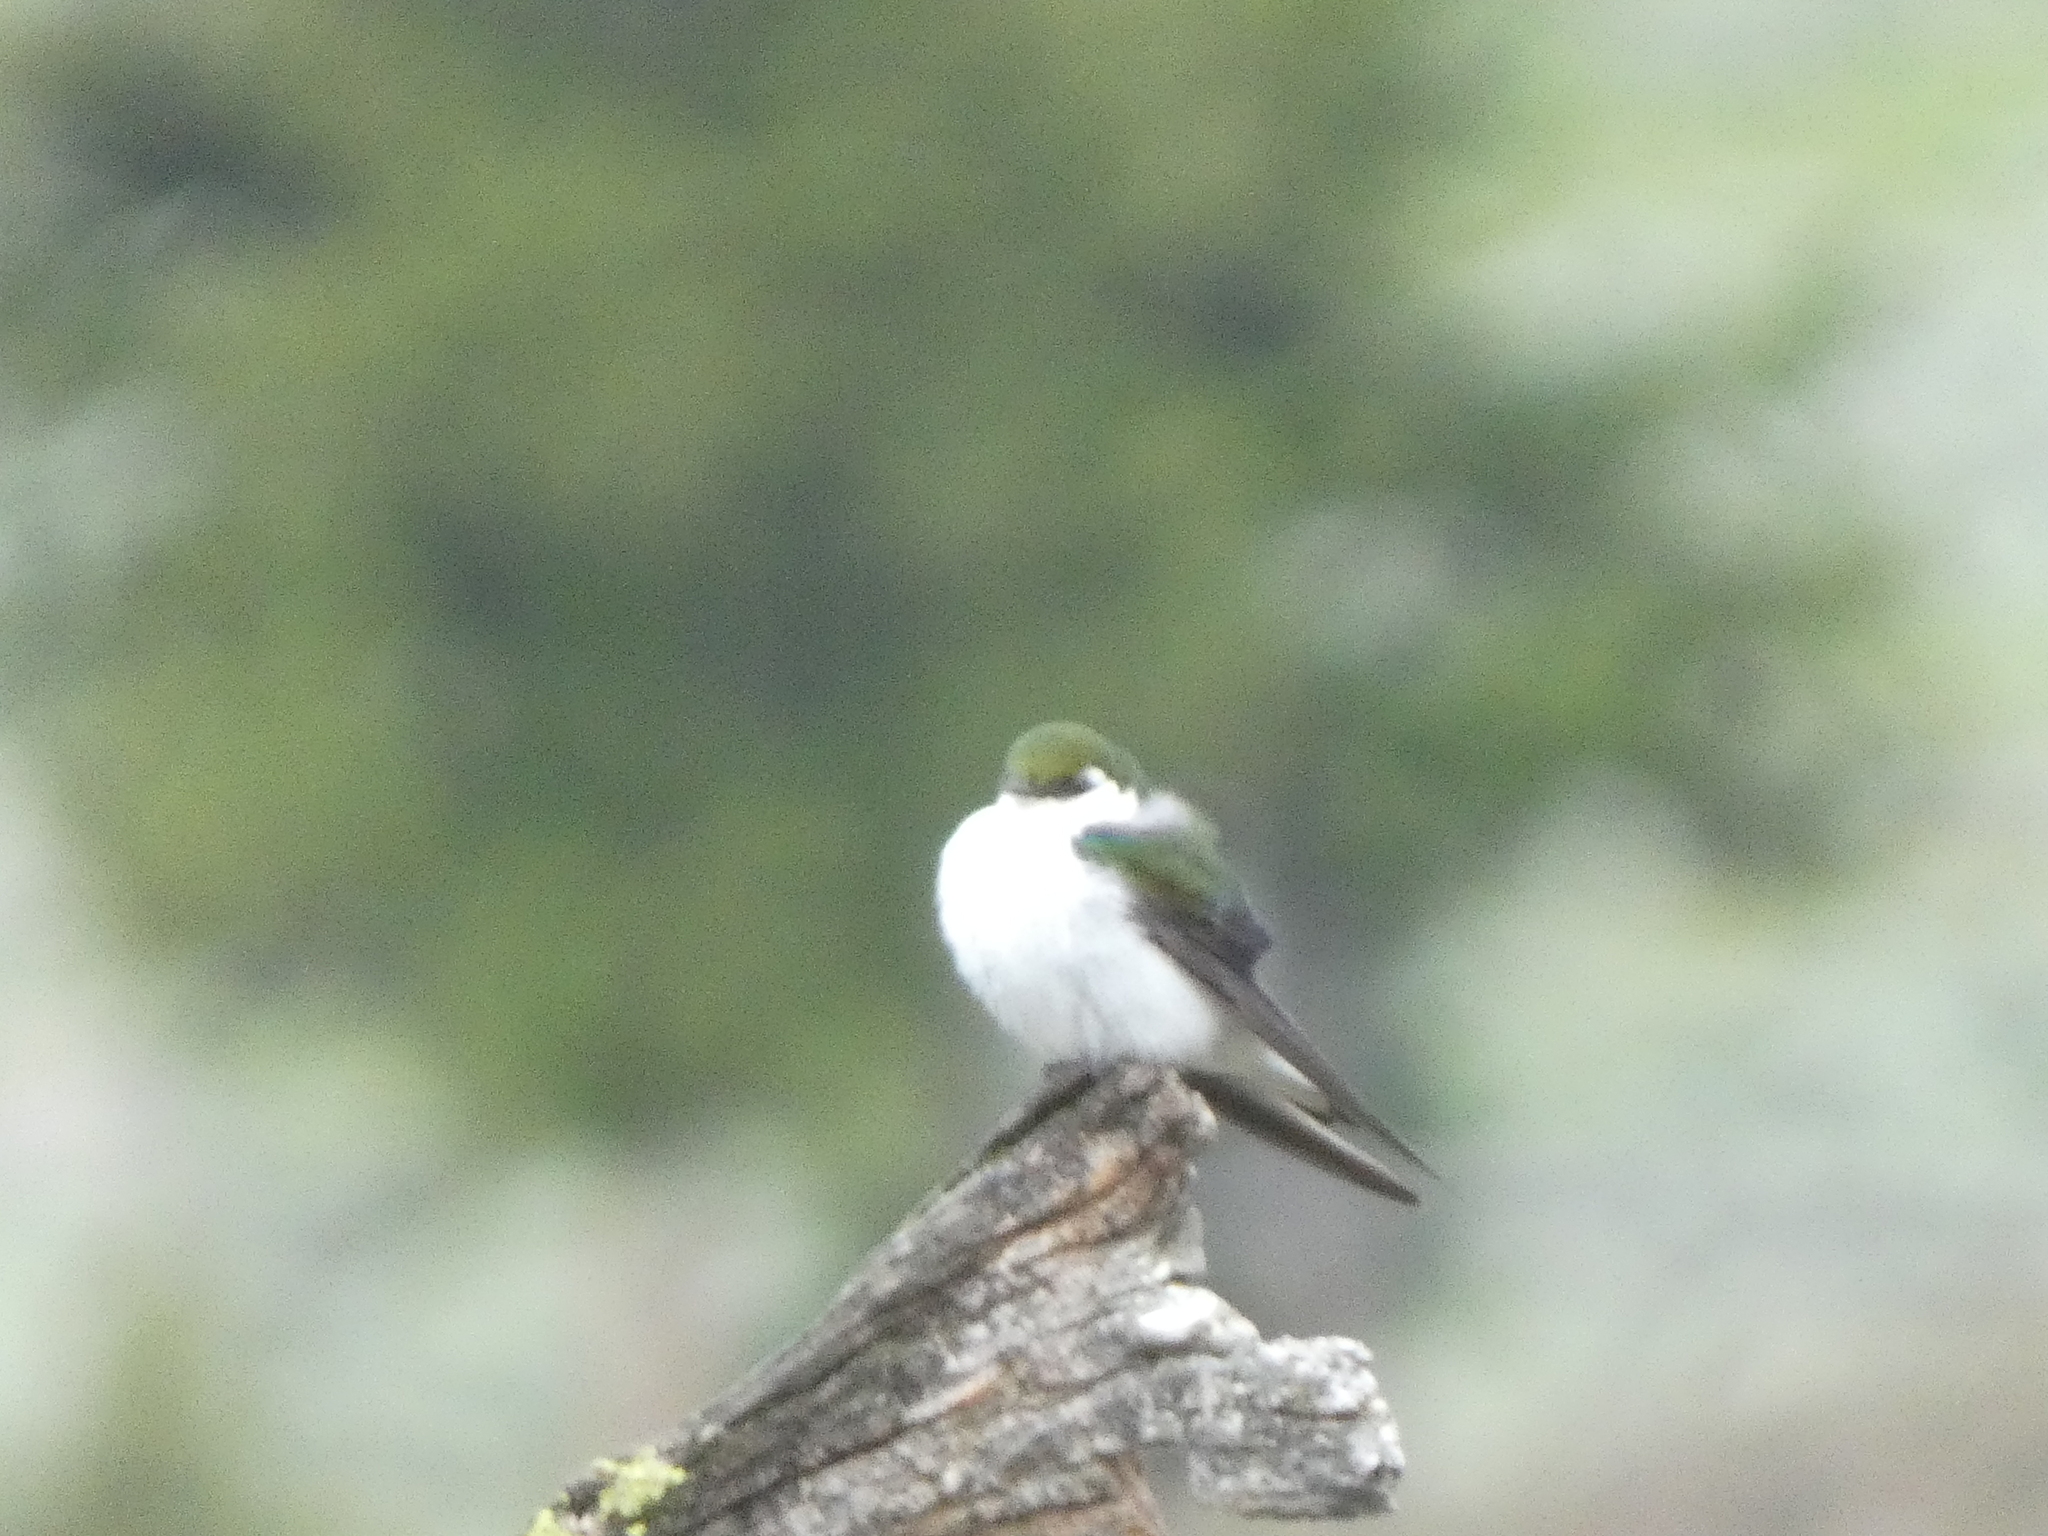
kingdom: Animalia
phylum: Chordata
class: Aves
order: Passeriformes
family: Hirundinidae
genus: Tachycineta
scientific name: Tachycineta thalassina
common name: Violet-green swallow
